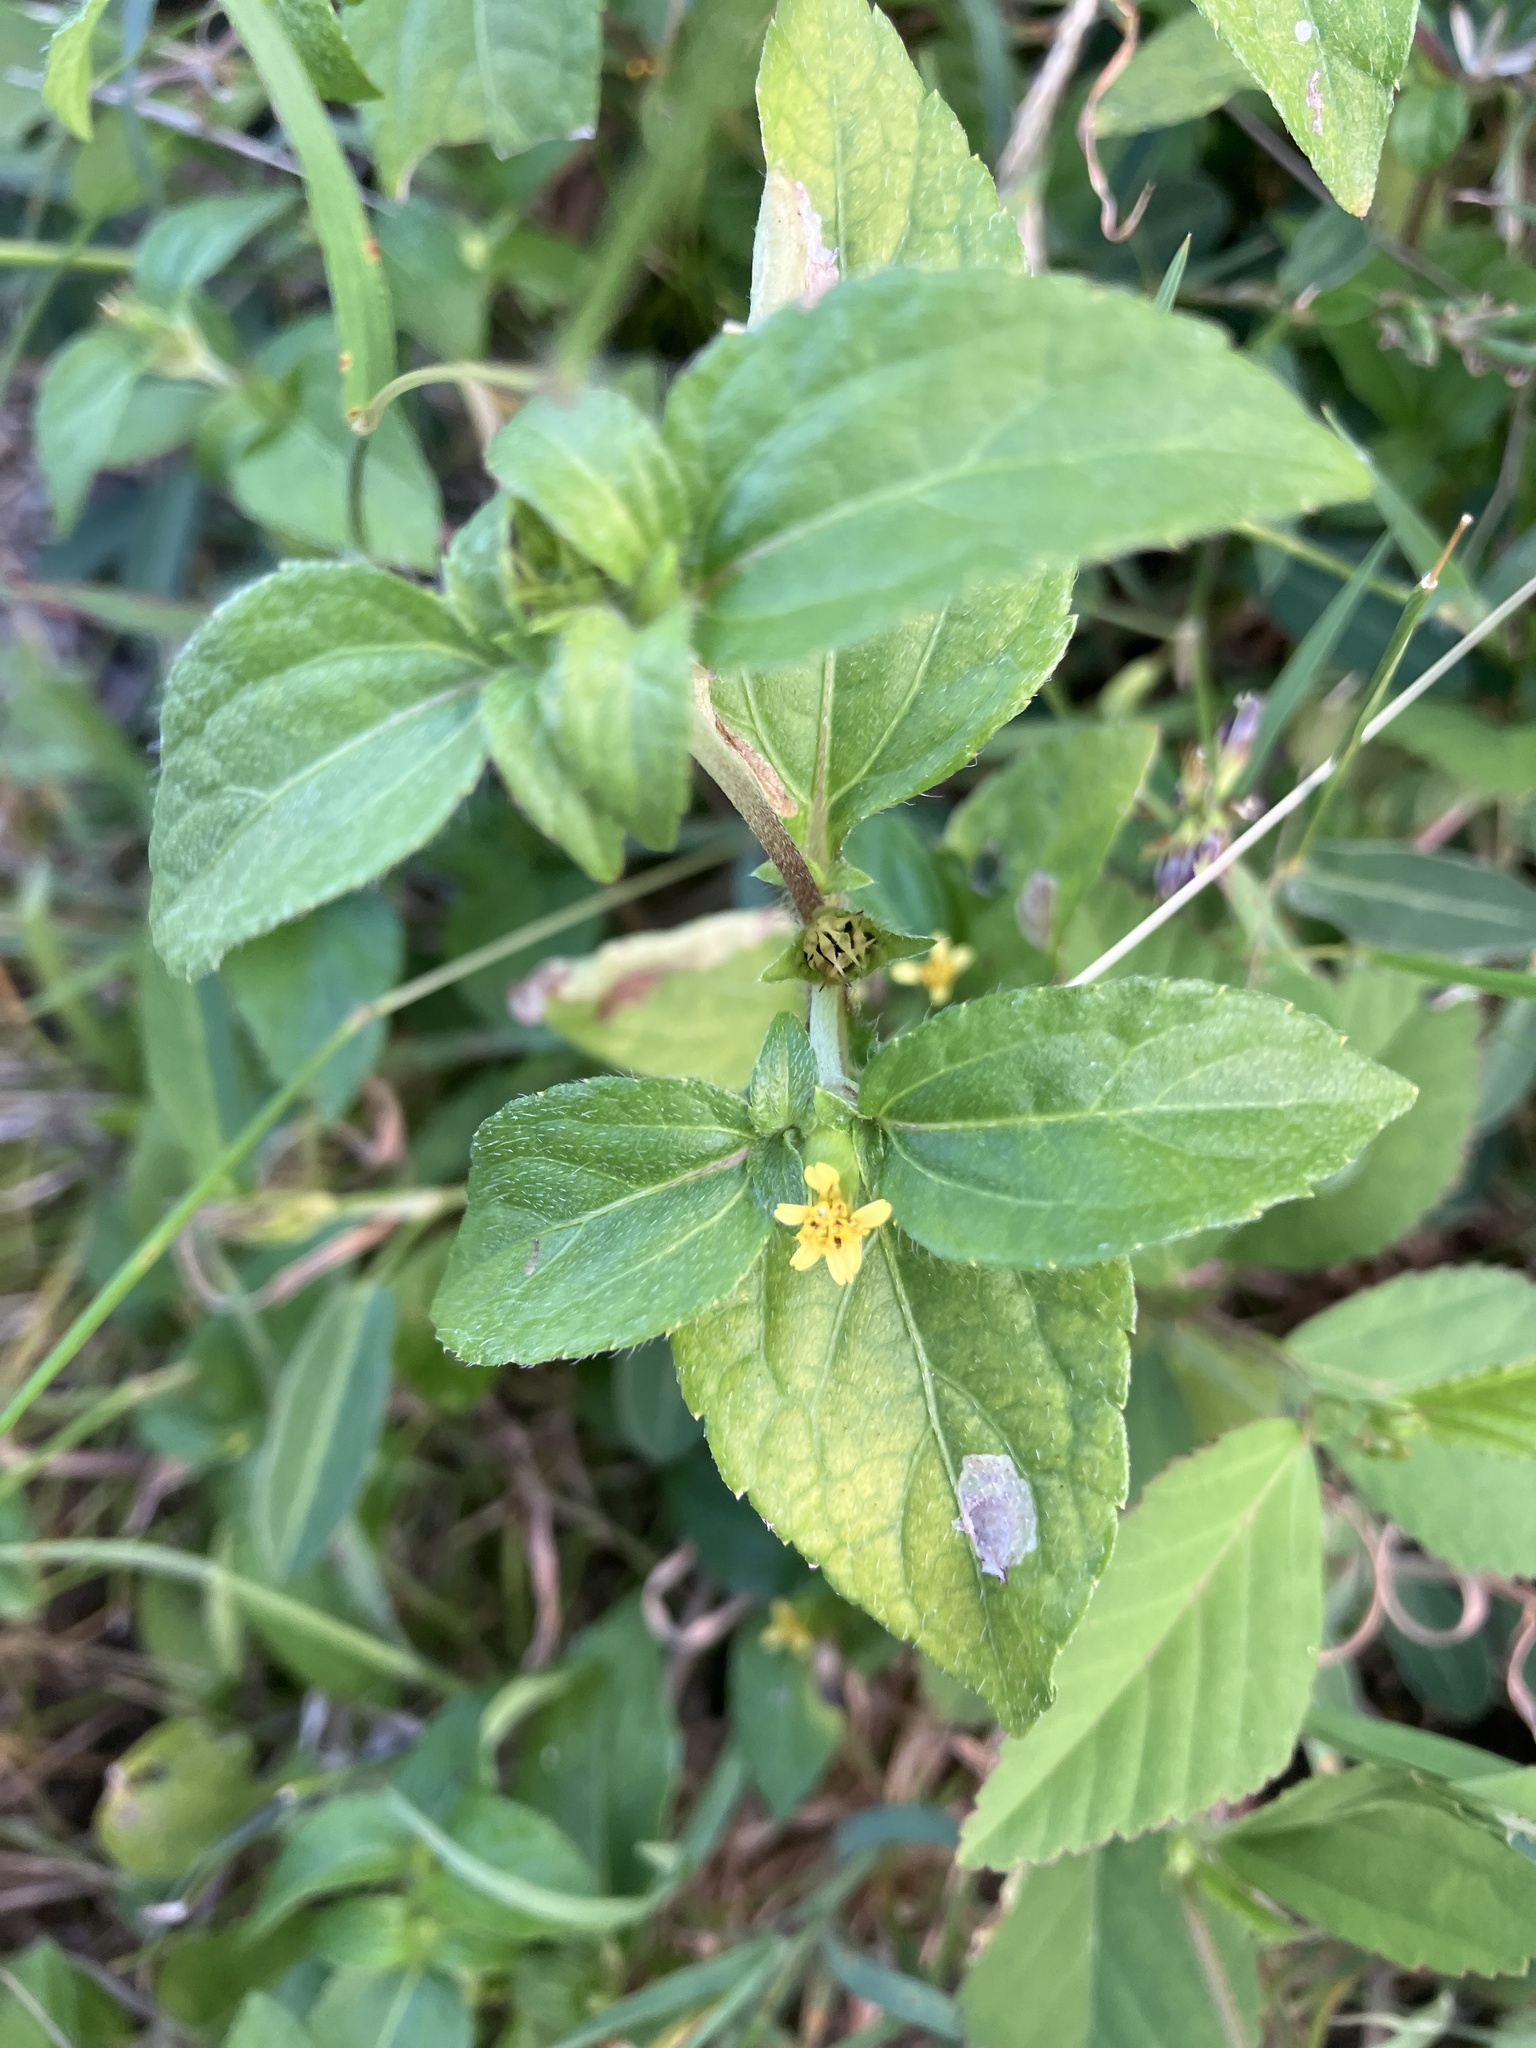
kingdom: Plantae
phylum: Tracheophyta
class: Magnoliopsida
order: Asterales
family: Asteraceae
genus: Synedrella
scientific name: Synedrella nodiflora
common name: Nodeweed
